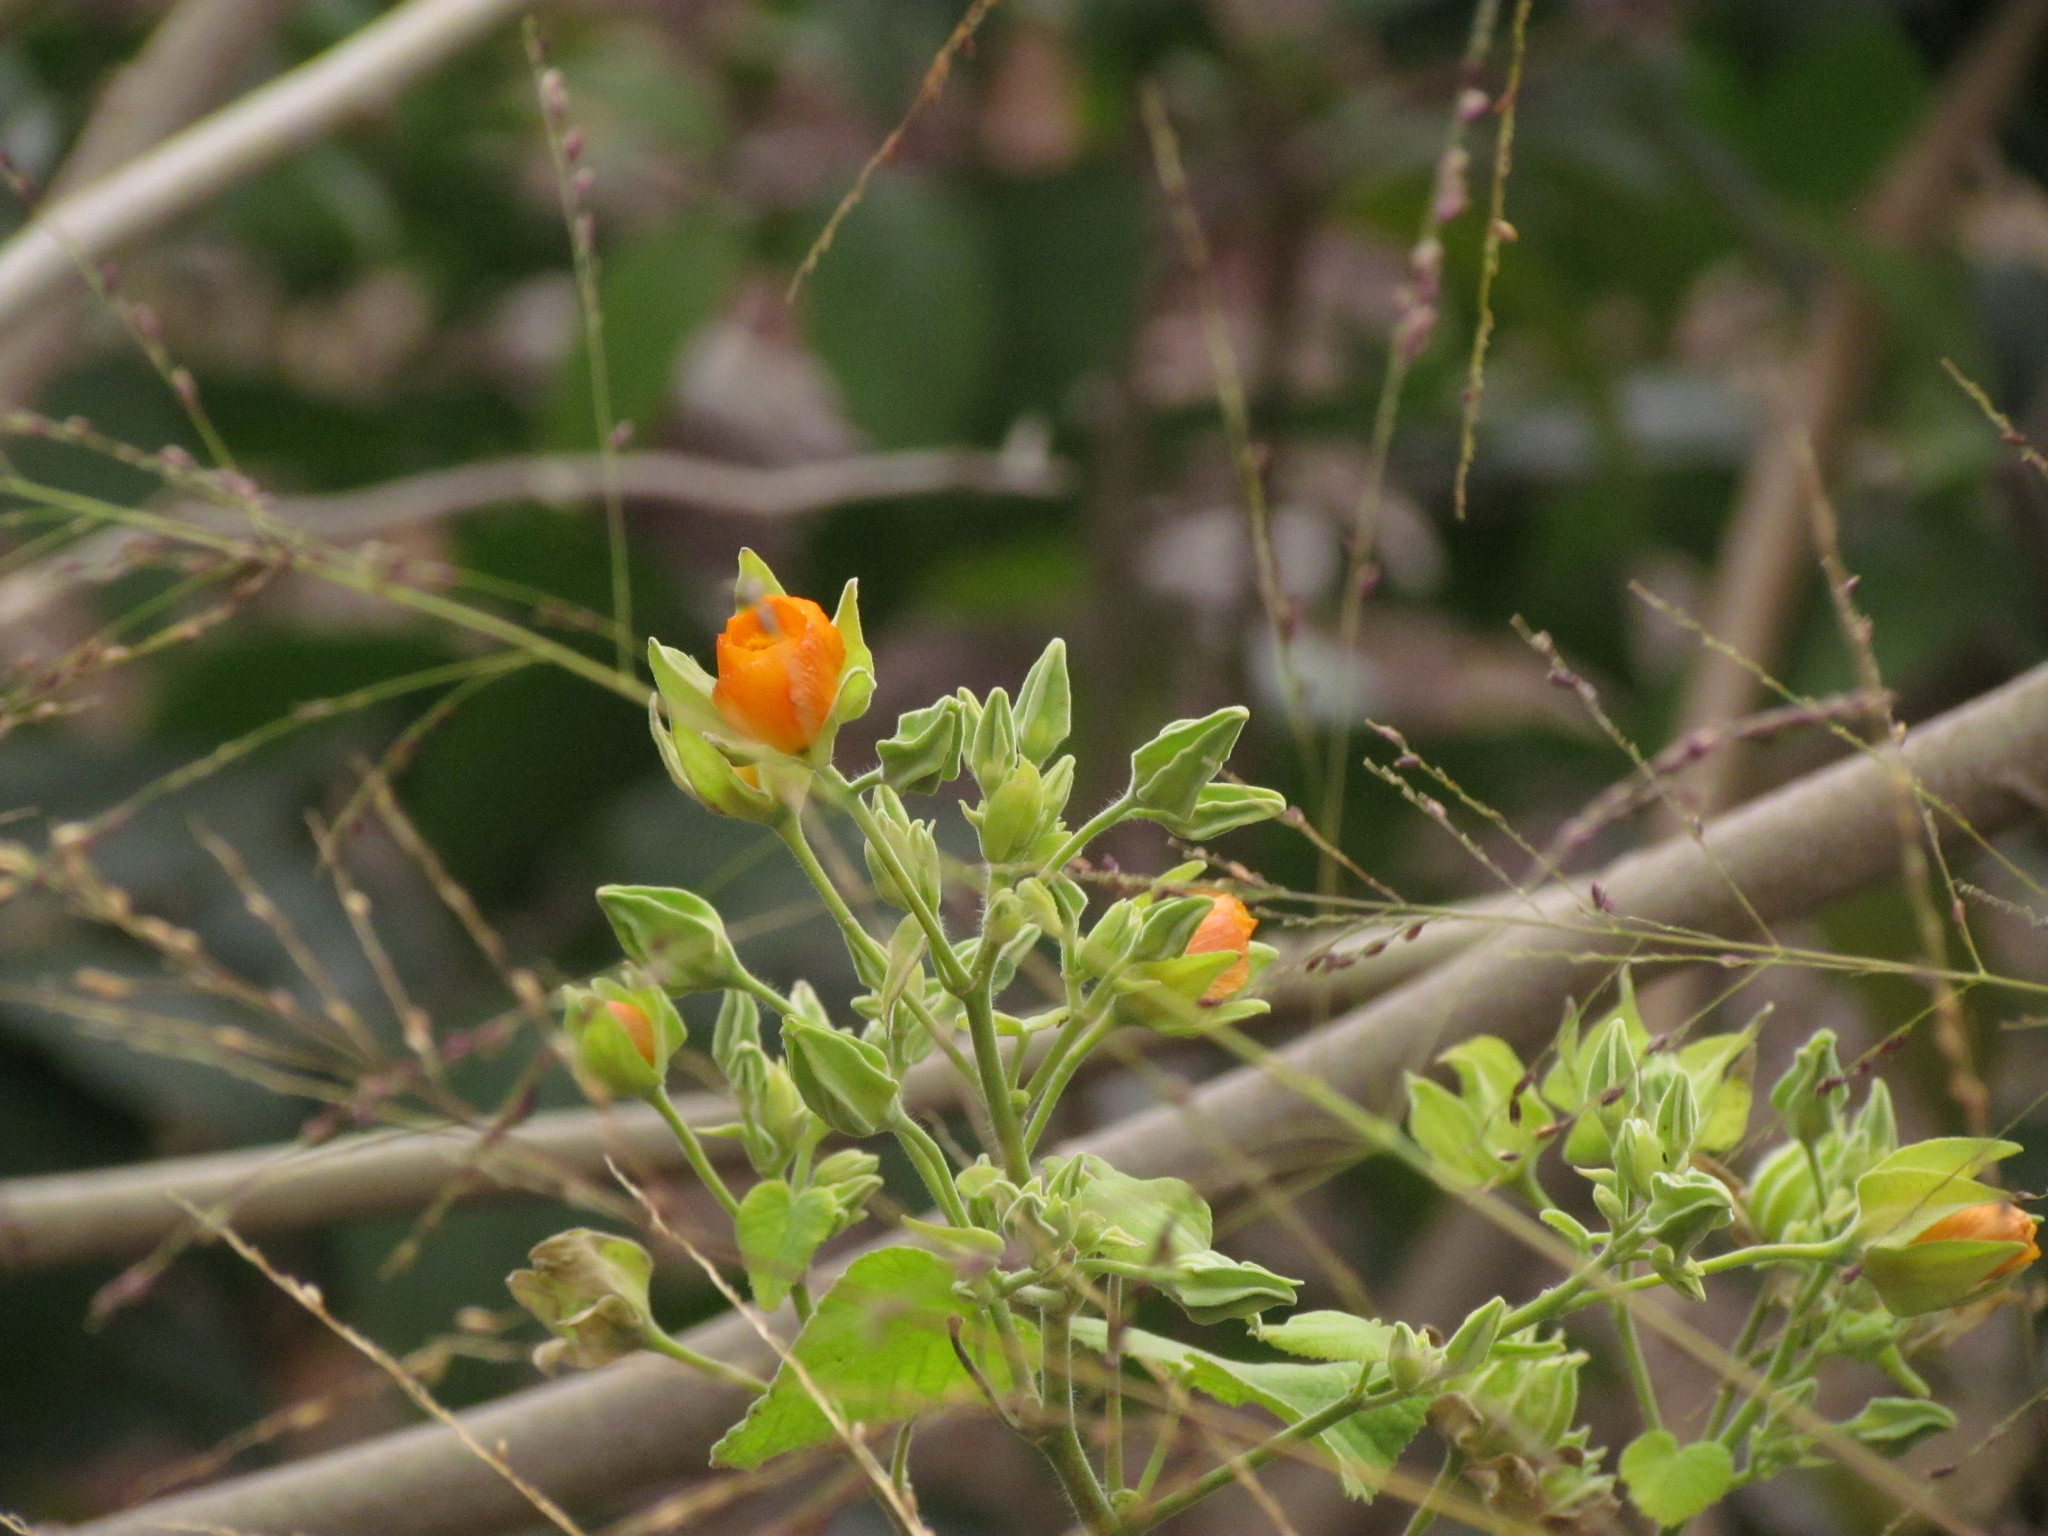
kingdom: Plantae
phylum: Tracheophyta
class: Magnoliopsida
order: Malvales
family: Malvaceae
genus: Abutilon
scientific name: Abutilon grandifolium
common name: Hairy abutilon
